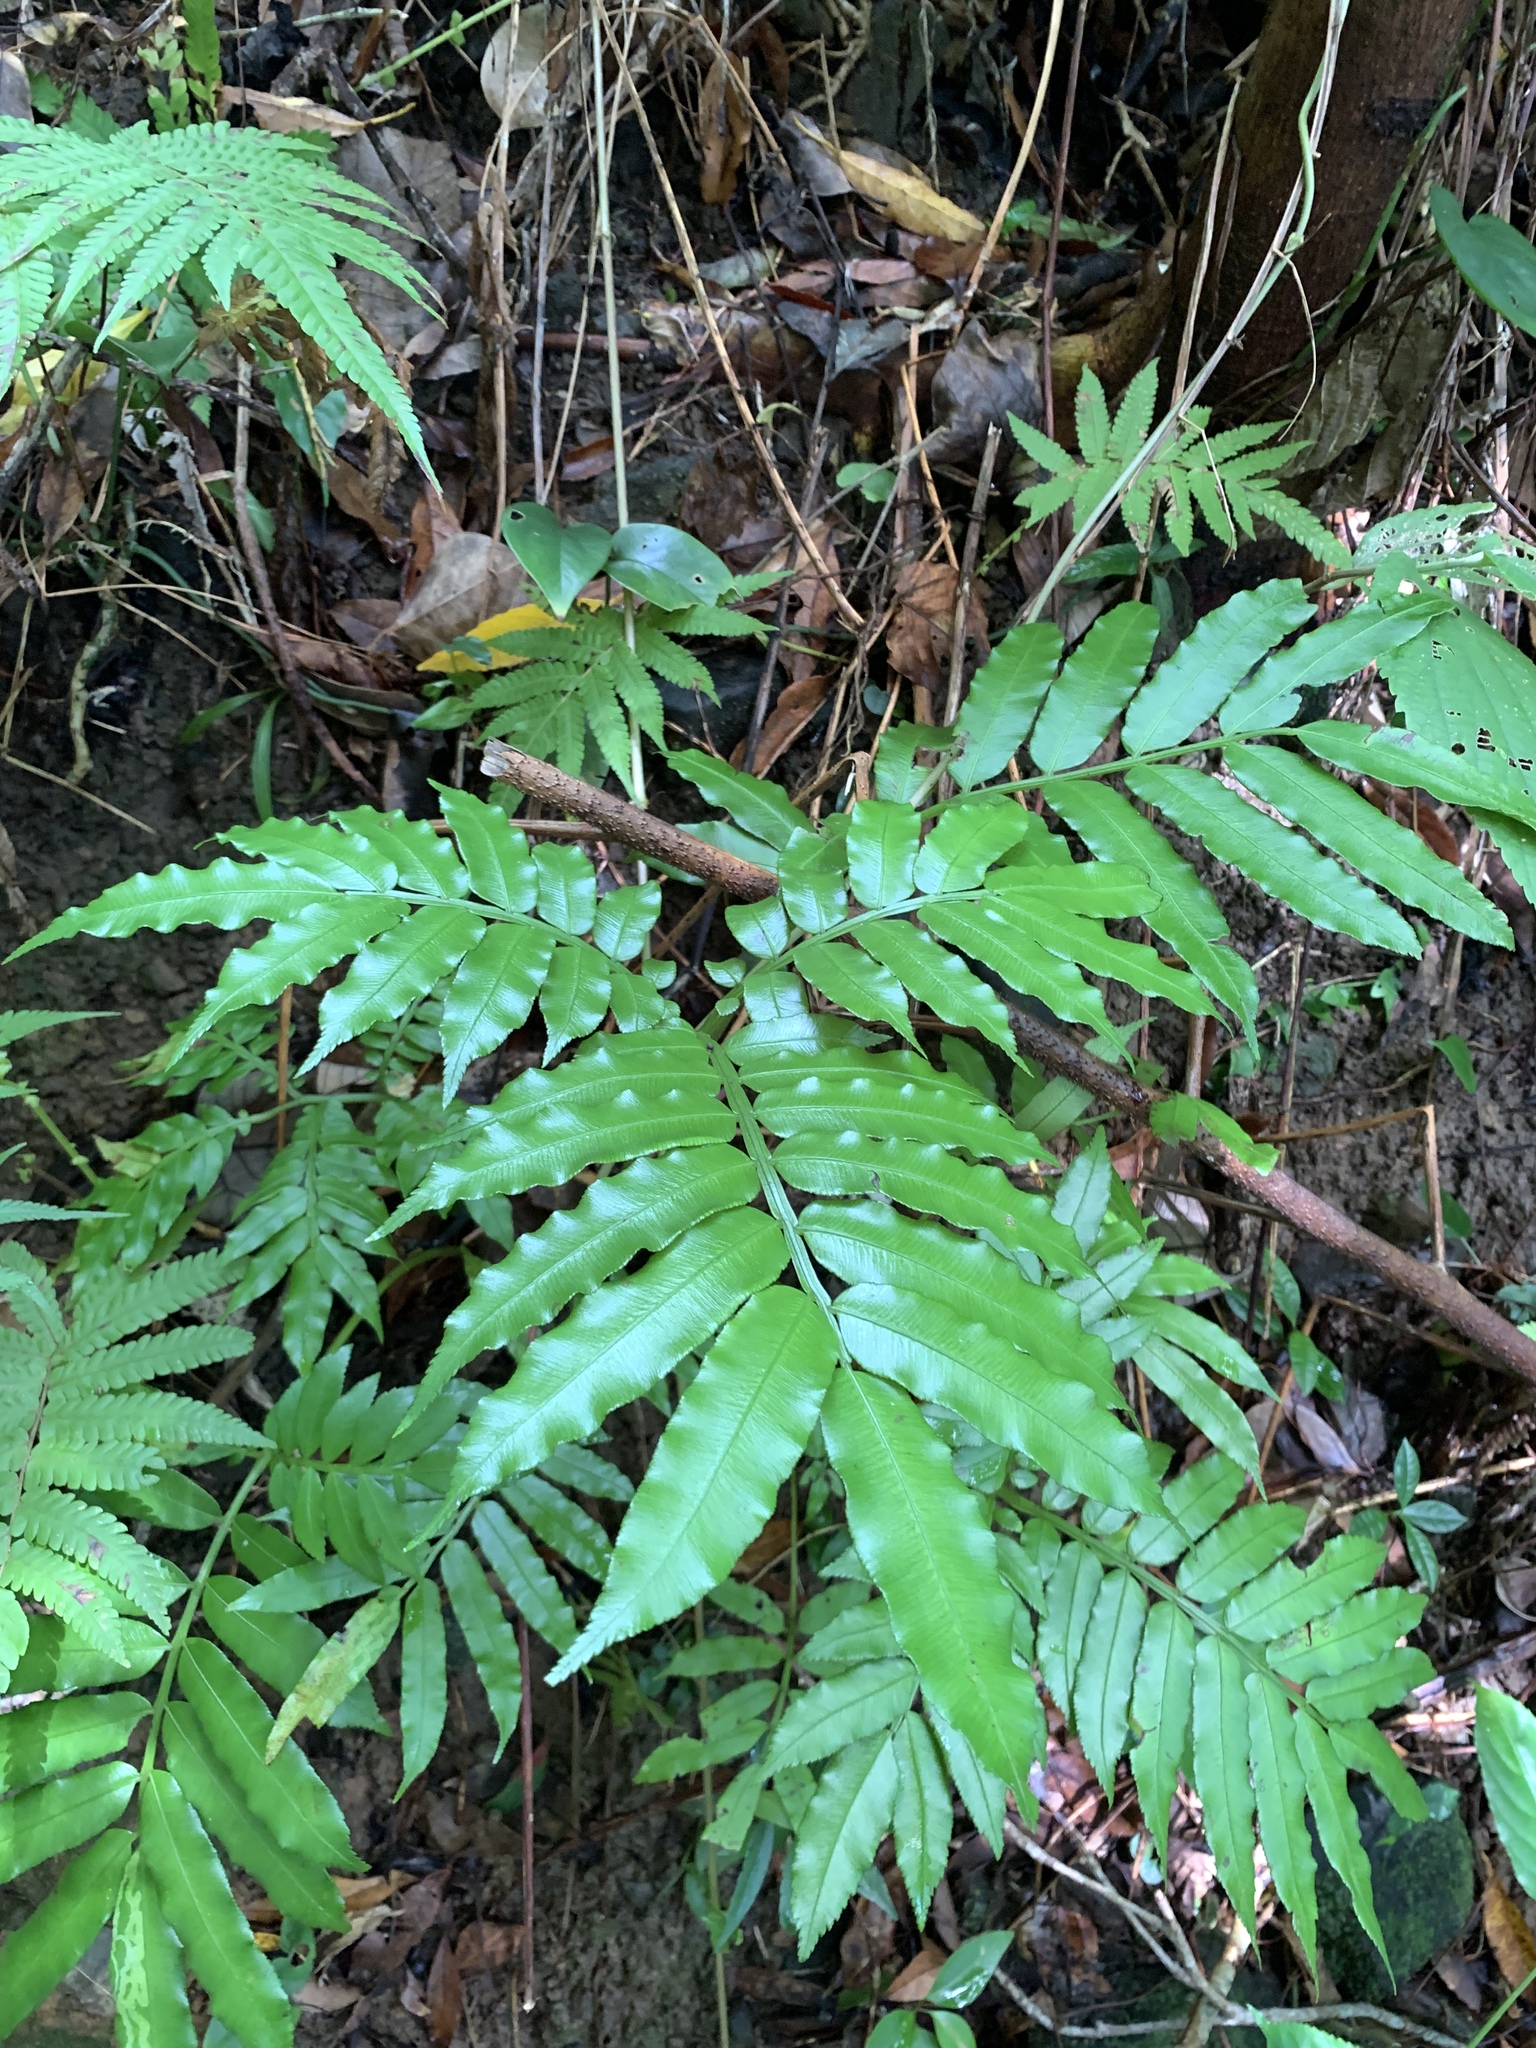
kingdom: Plantae
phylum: Tracheophyta
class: Polypodiopsida
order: Marattiales
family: Marattiaceae
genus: Angiopteris
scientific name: Angiopteris angustifolia
